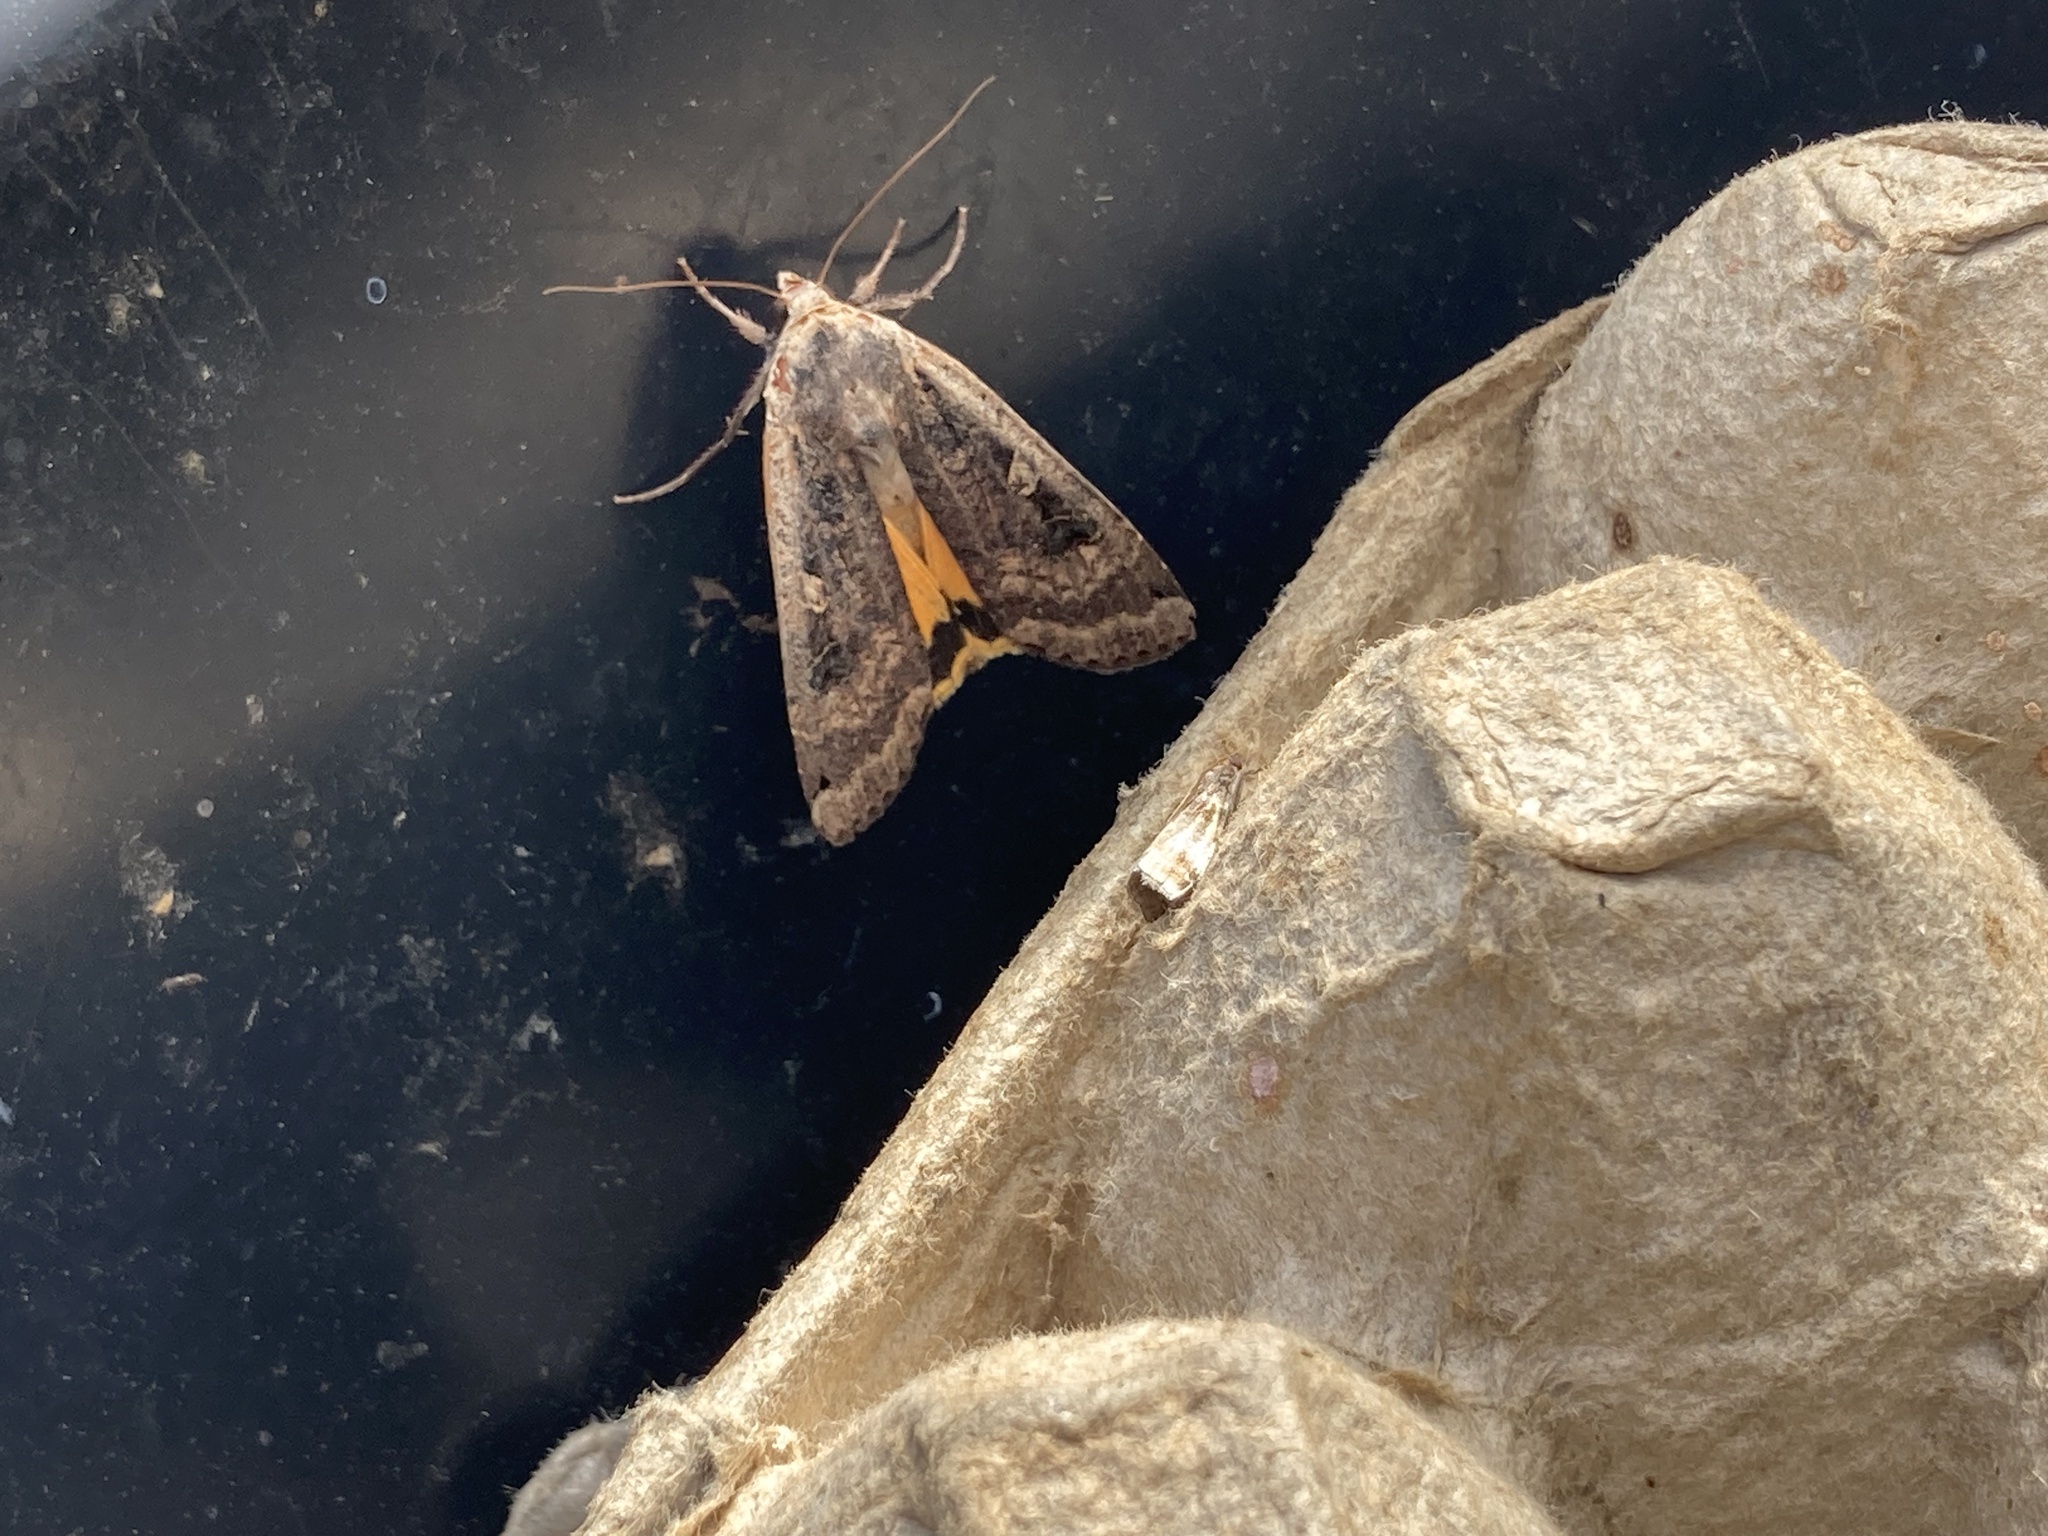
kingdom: Animalia
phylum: Arthropoda
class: Insecta
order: Lepidoptera
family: Noctuidae
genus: Noctua
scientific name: Noctua pronuba
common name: Large yellow underwing
